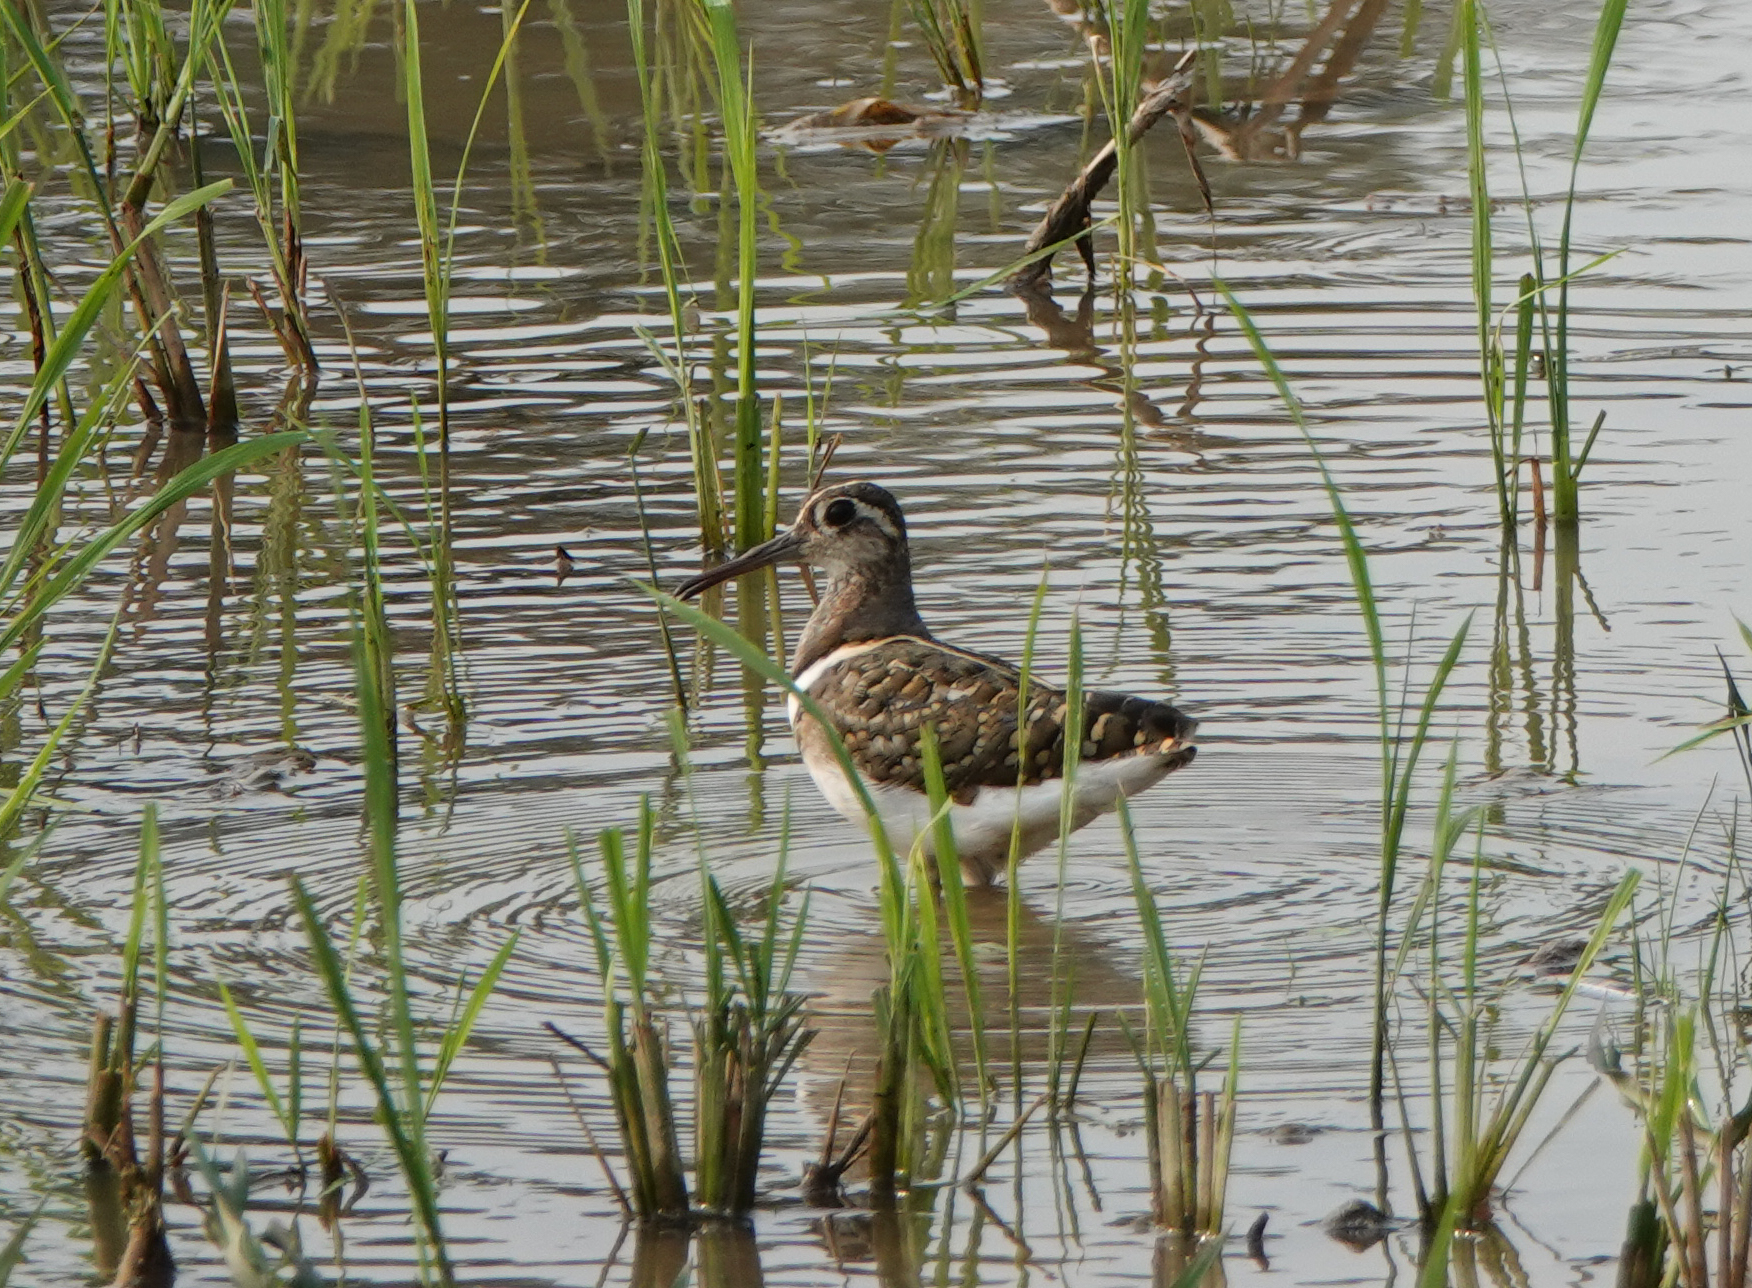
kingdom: Animalia
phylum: Chordata
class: Aves
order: Charadriiformes
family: Rostratulidae
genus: Rostratula
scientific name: Rostratula benghalensis
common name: Greater painted-snipe
